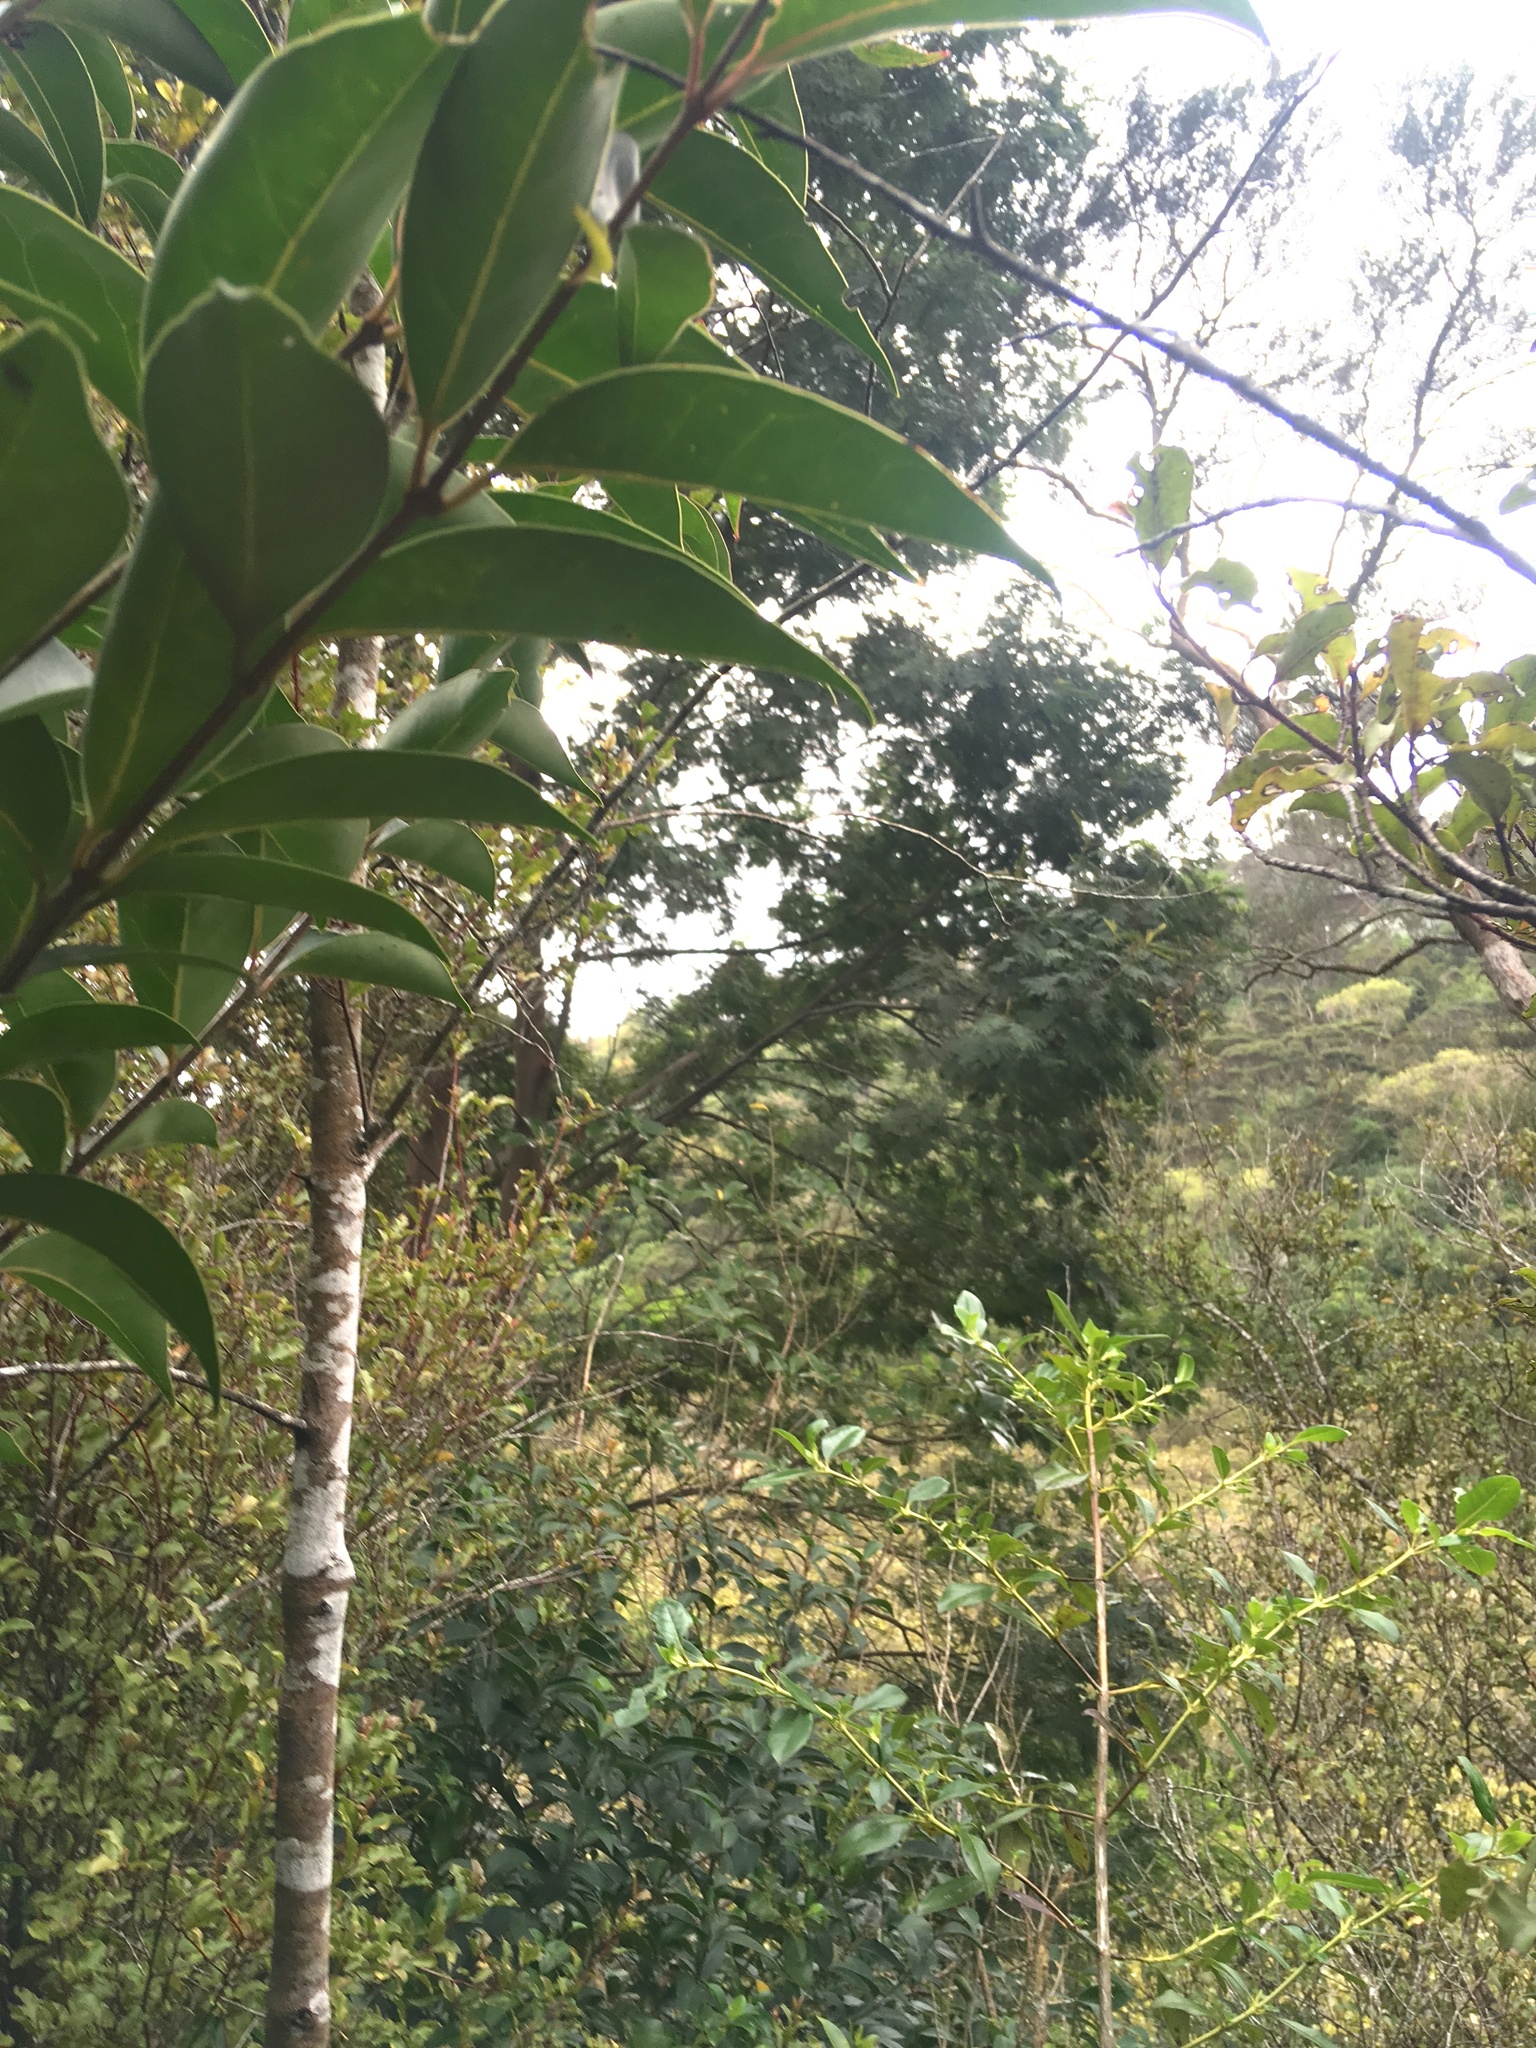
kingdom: Plantae
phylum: Tracheophyta
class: Magnoliopsida
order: Lamiales
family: Oleaceae
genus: Ligustrum
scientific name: Ligustrum lucidum
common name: Glossy privet
